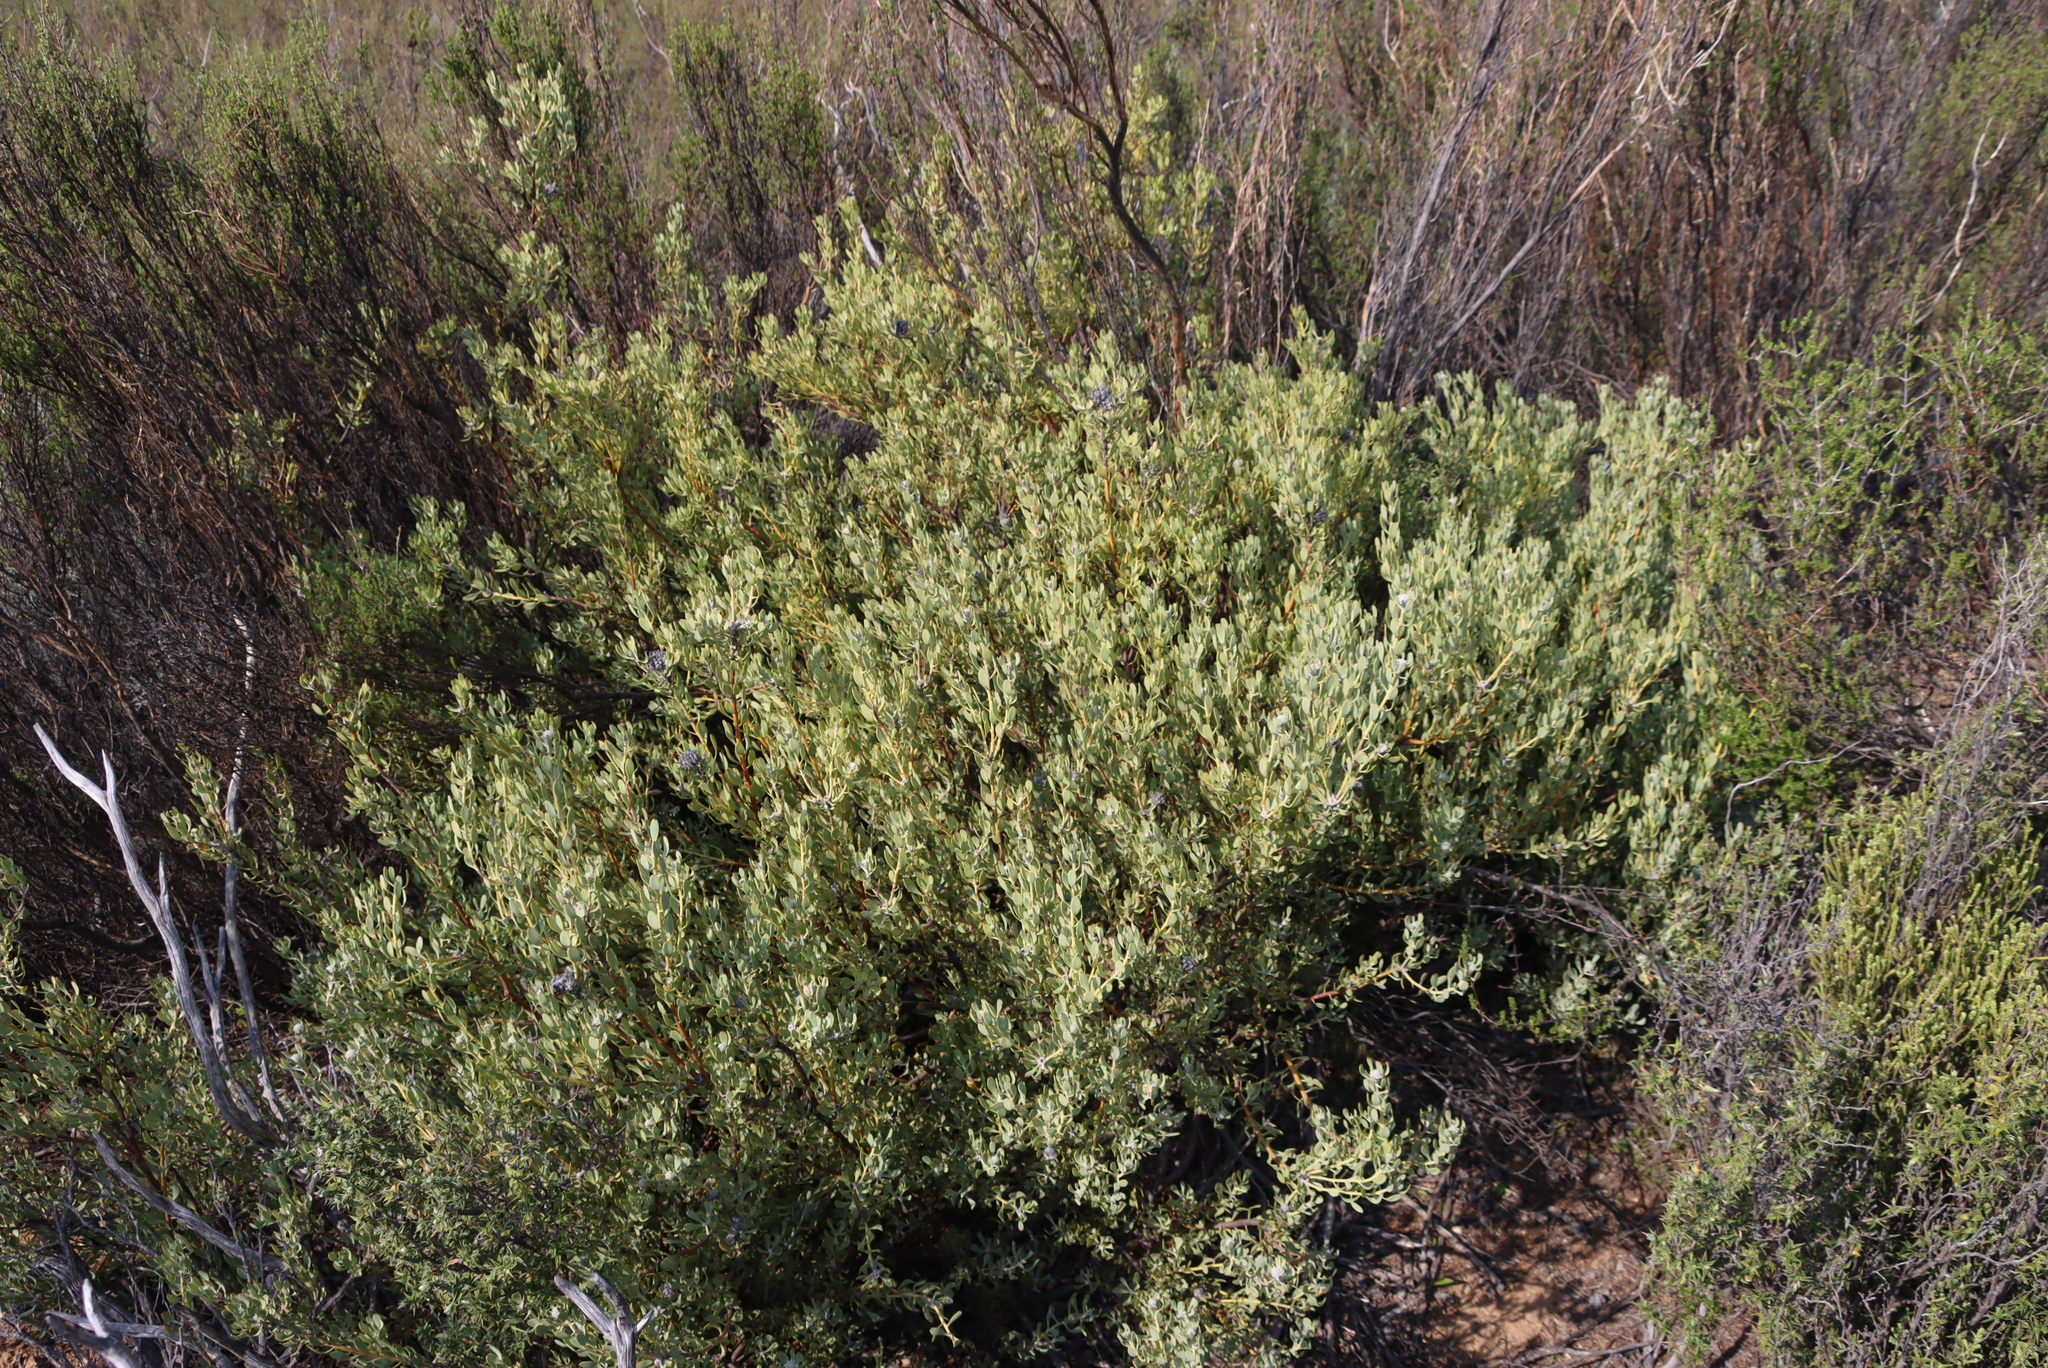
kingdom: Plantae
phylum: Tracheophyta
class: Magnoliopsida
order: Proteales
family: Proteaceae
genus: Vexatorella
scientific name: Vexatorella alpina
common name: Kamiesberg vexator
